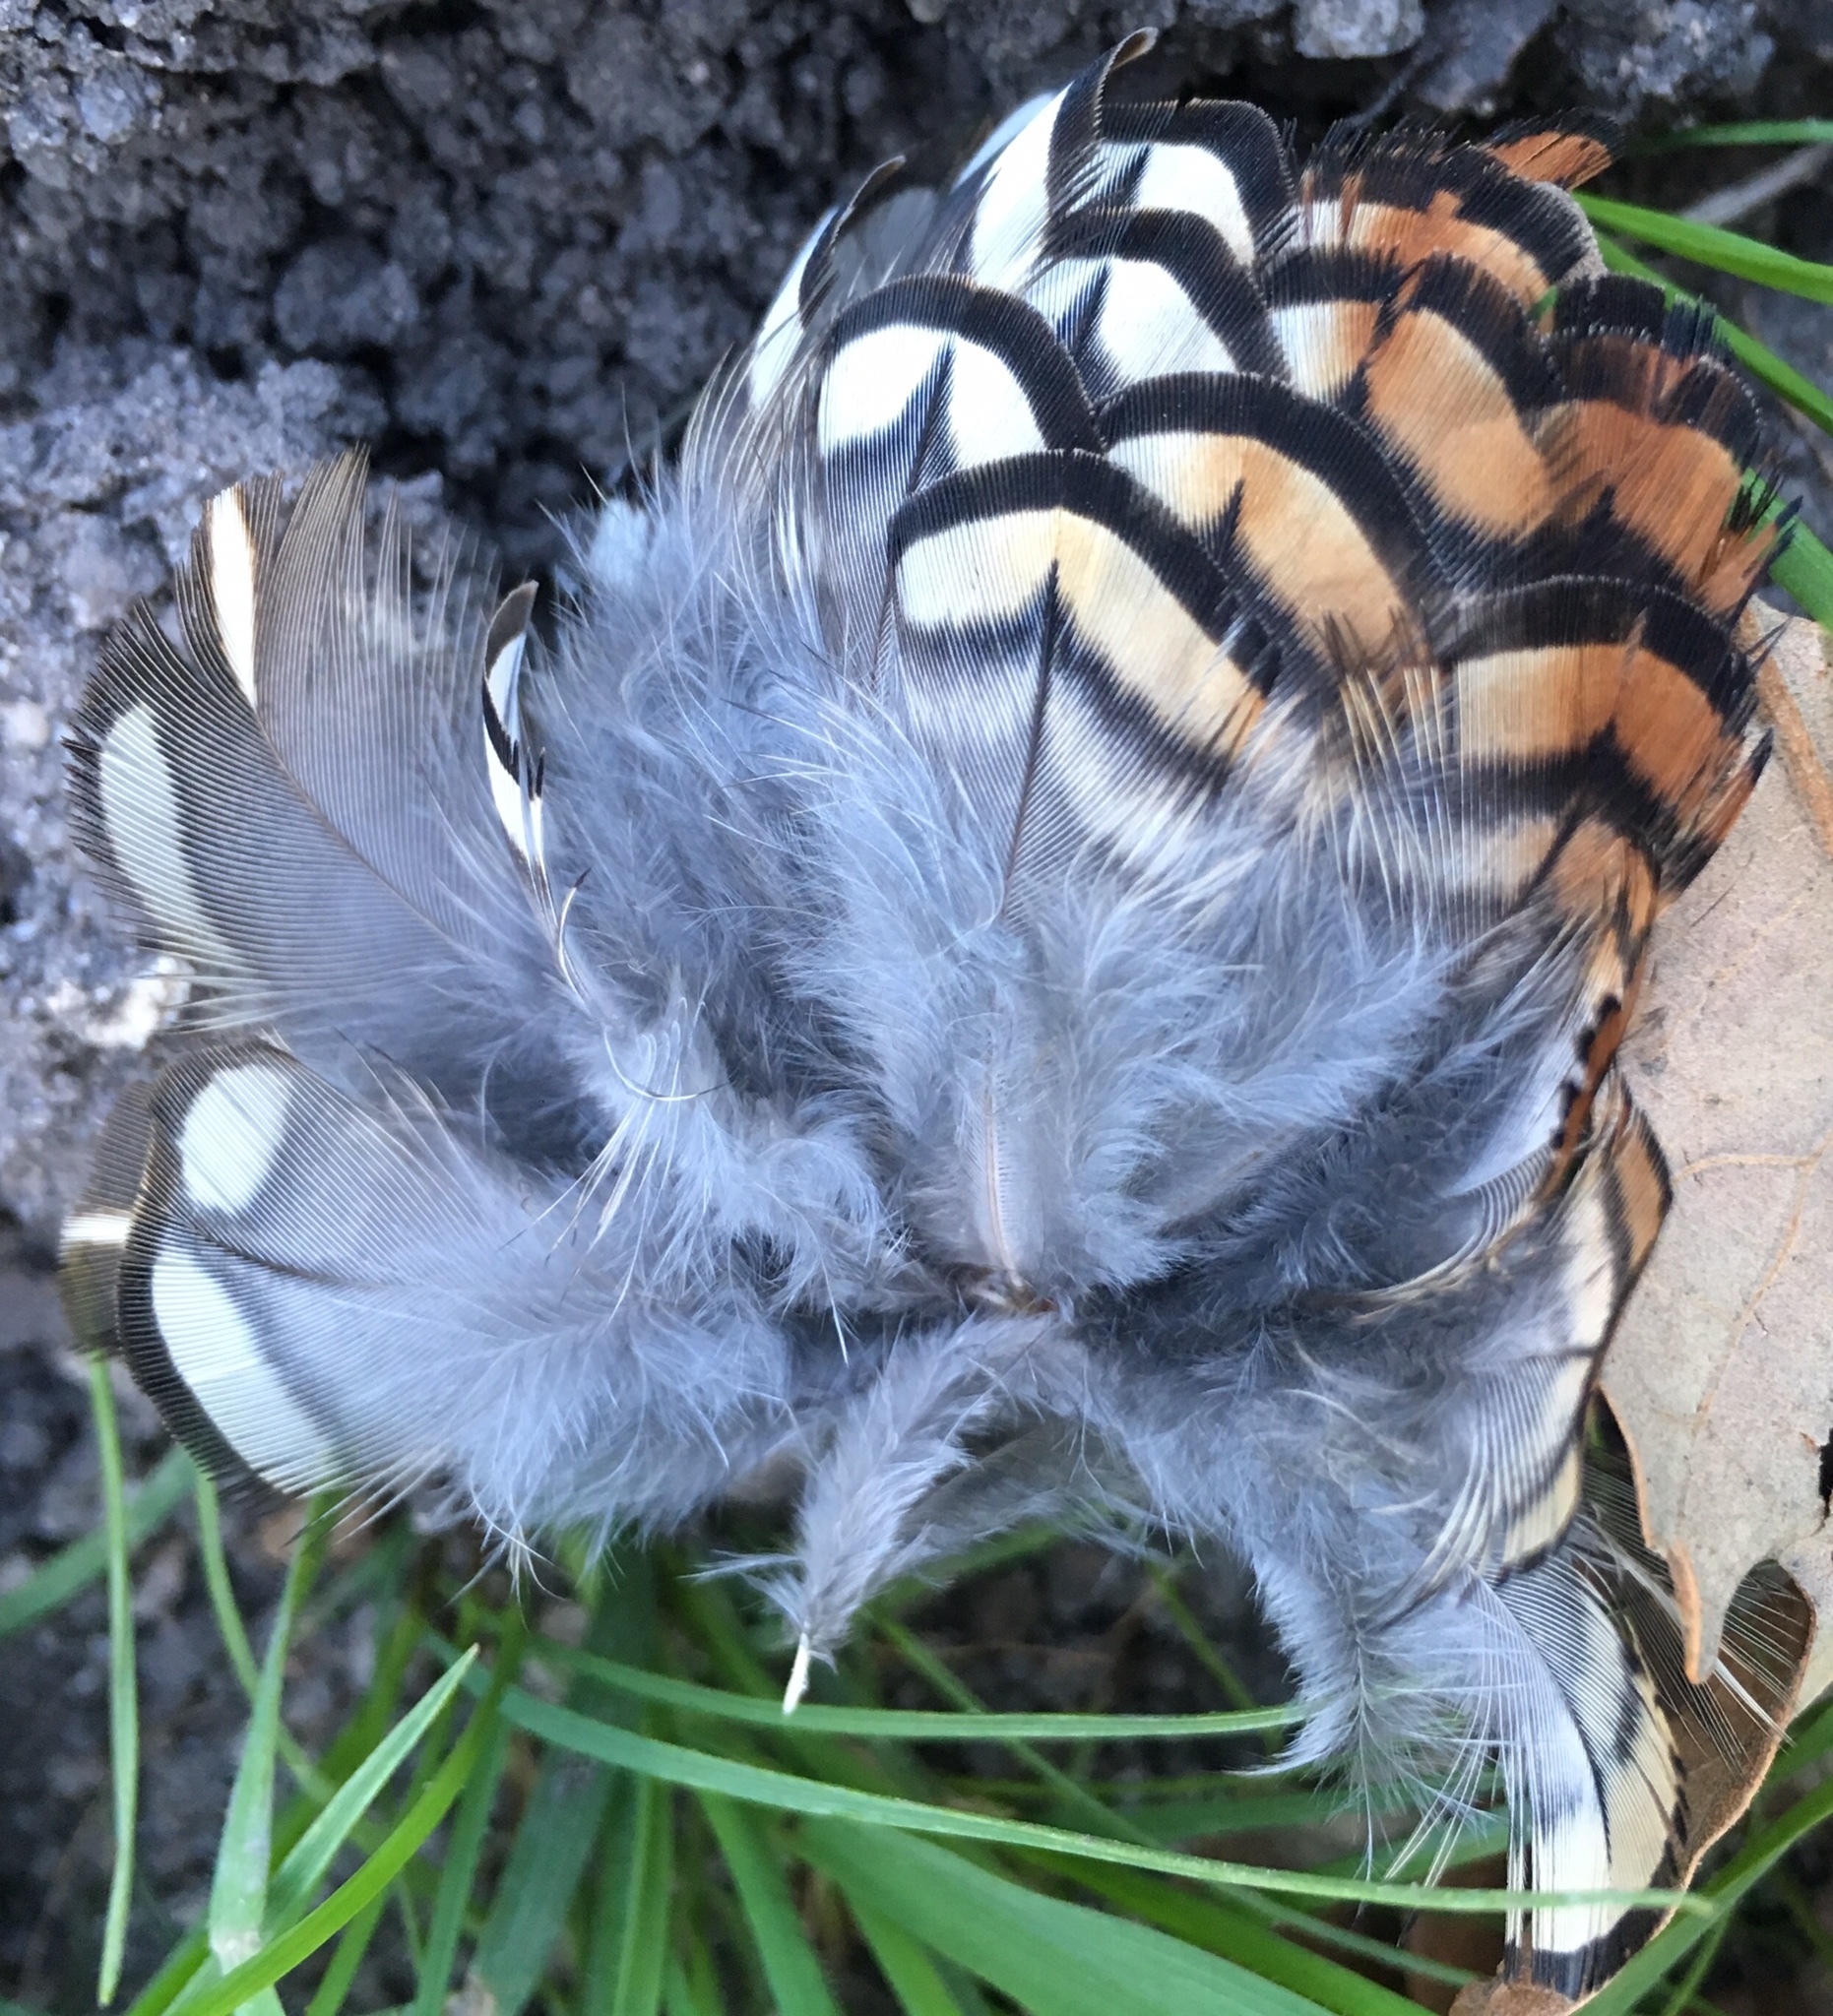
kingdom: Animalia
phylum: Chordata
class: Aves
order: Galliformes
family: Odontophoridae
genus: Callipepla
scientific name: Callipepla californica
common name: California quail
